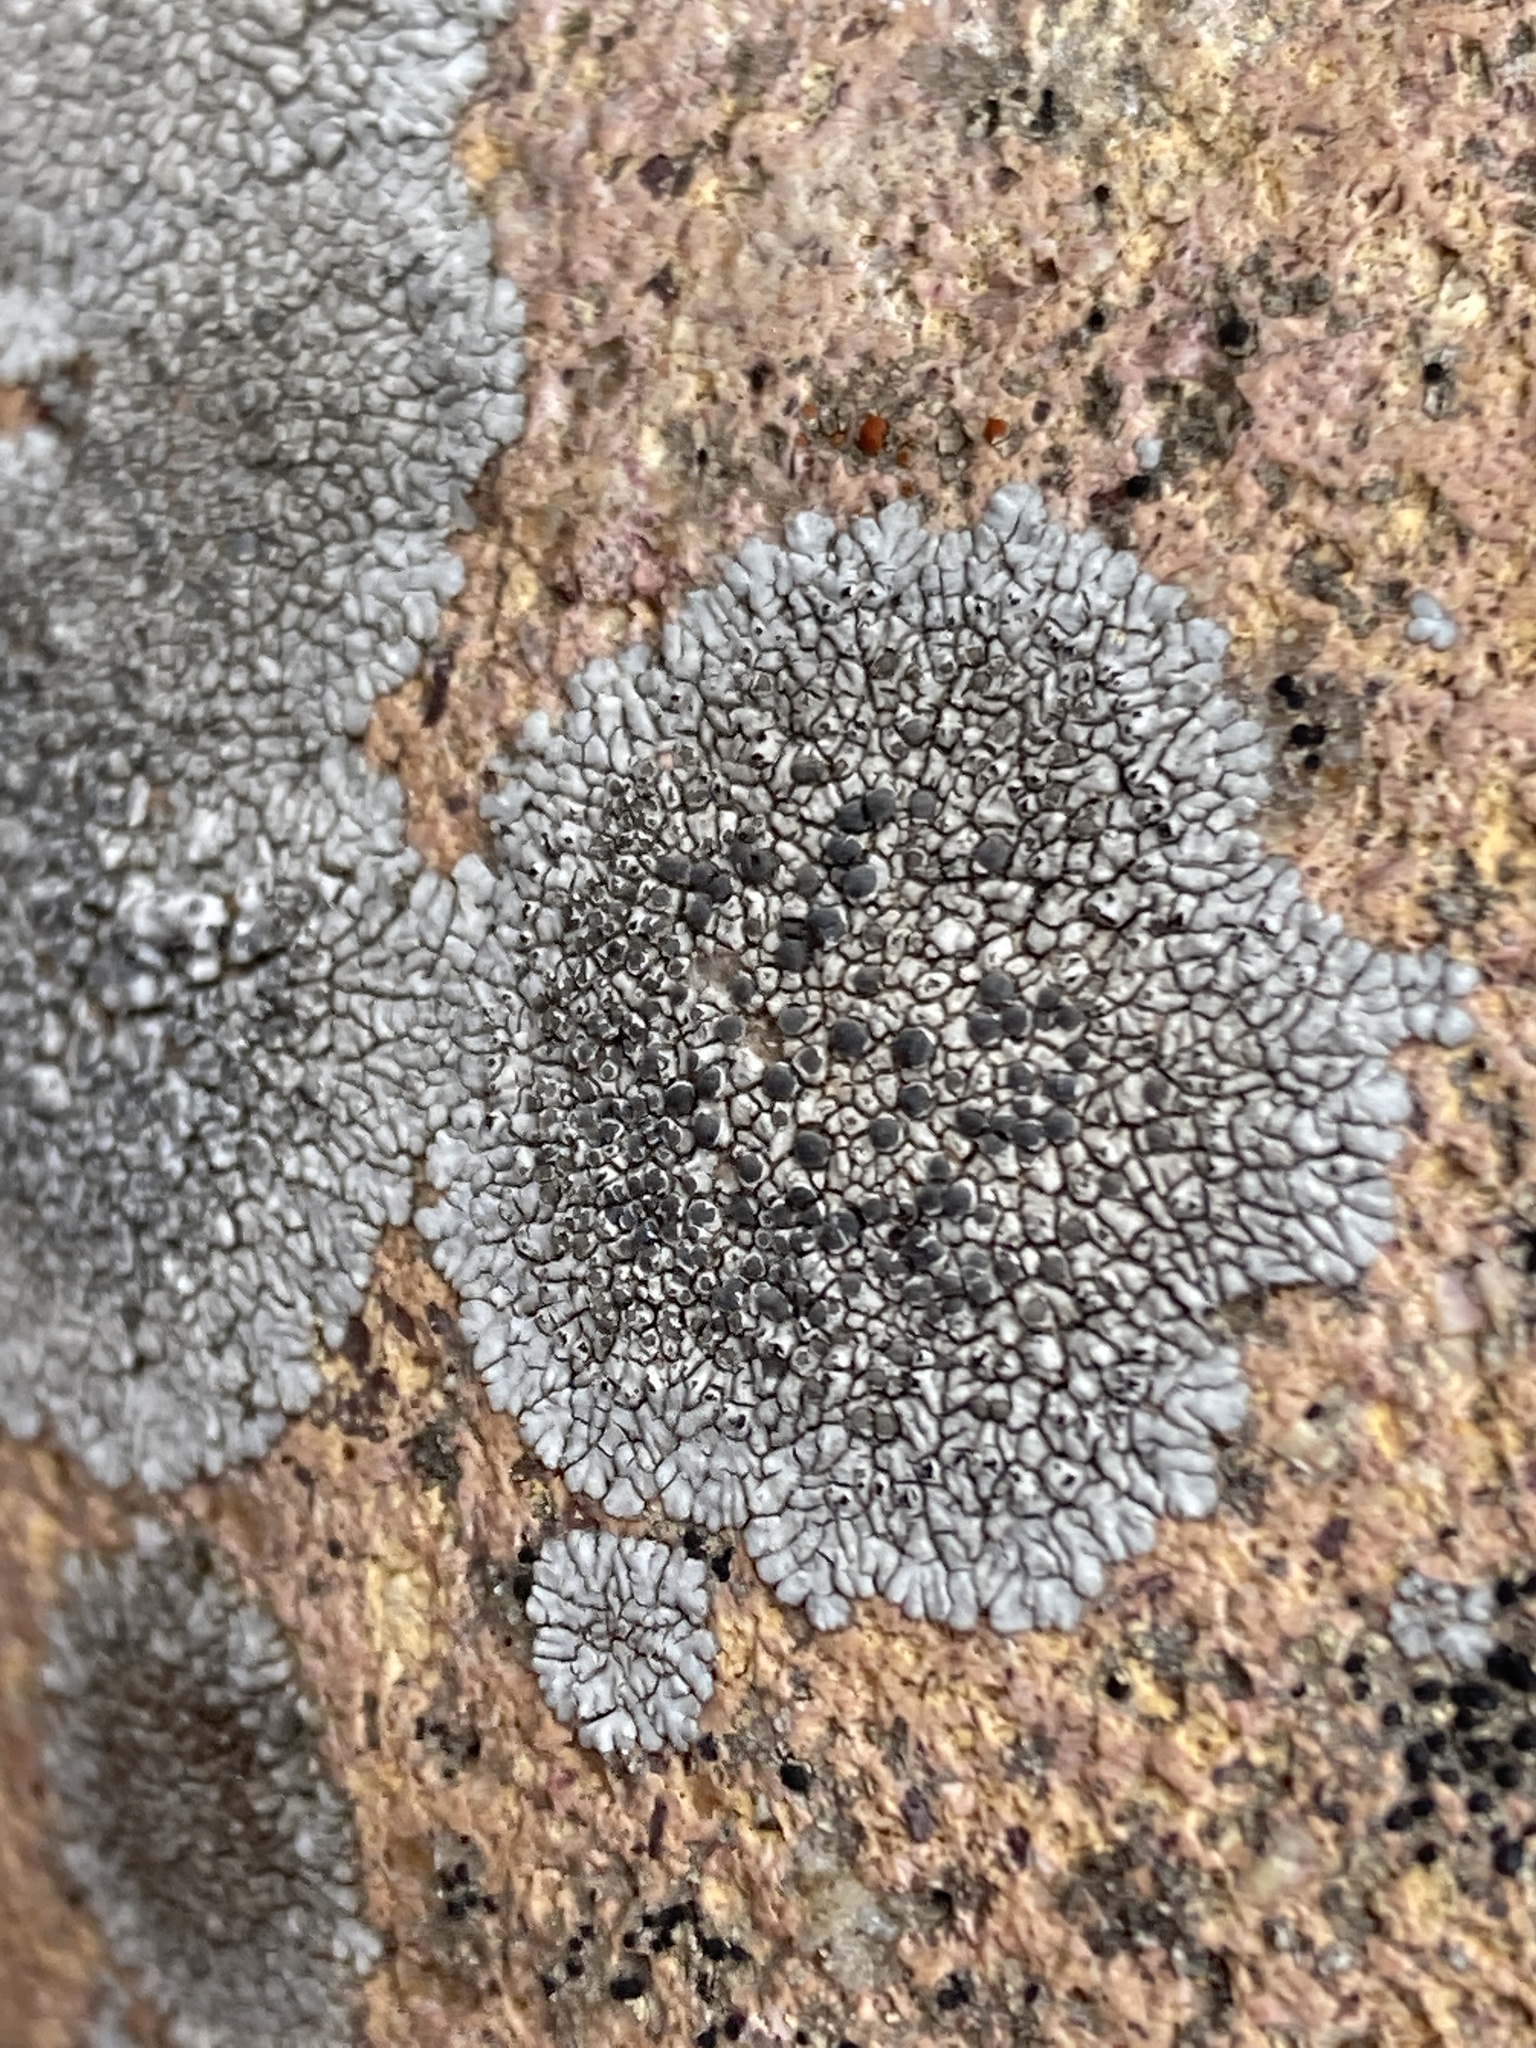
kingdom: Fungi
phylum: Ascomycota
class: Lecanoromycetes
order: Caliciales
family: Caliciaceae
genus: Dimelaena
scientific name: Dimelaena radiata
